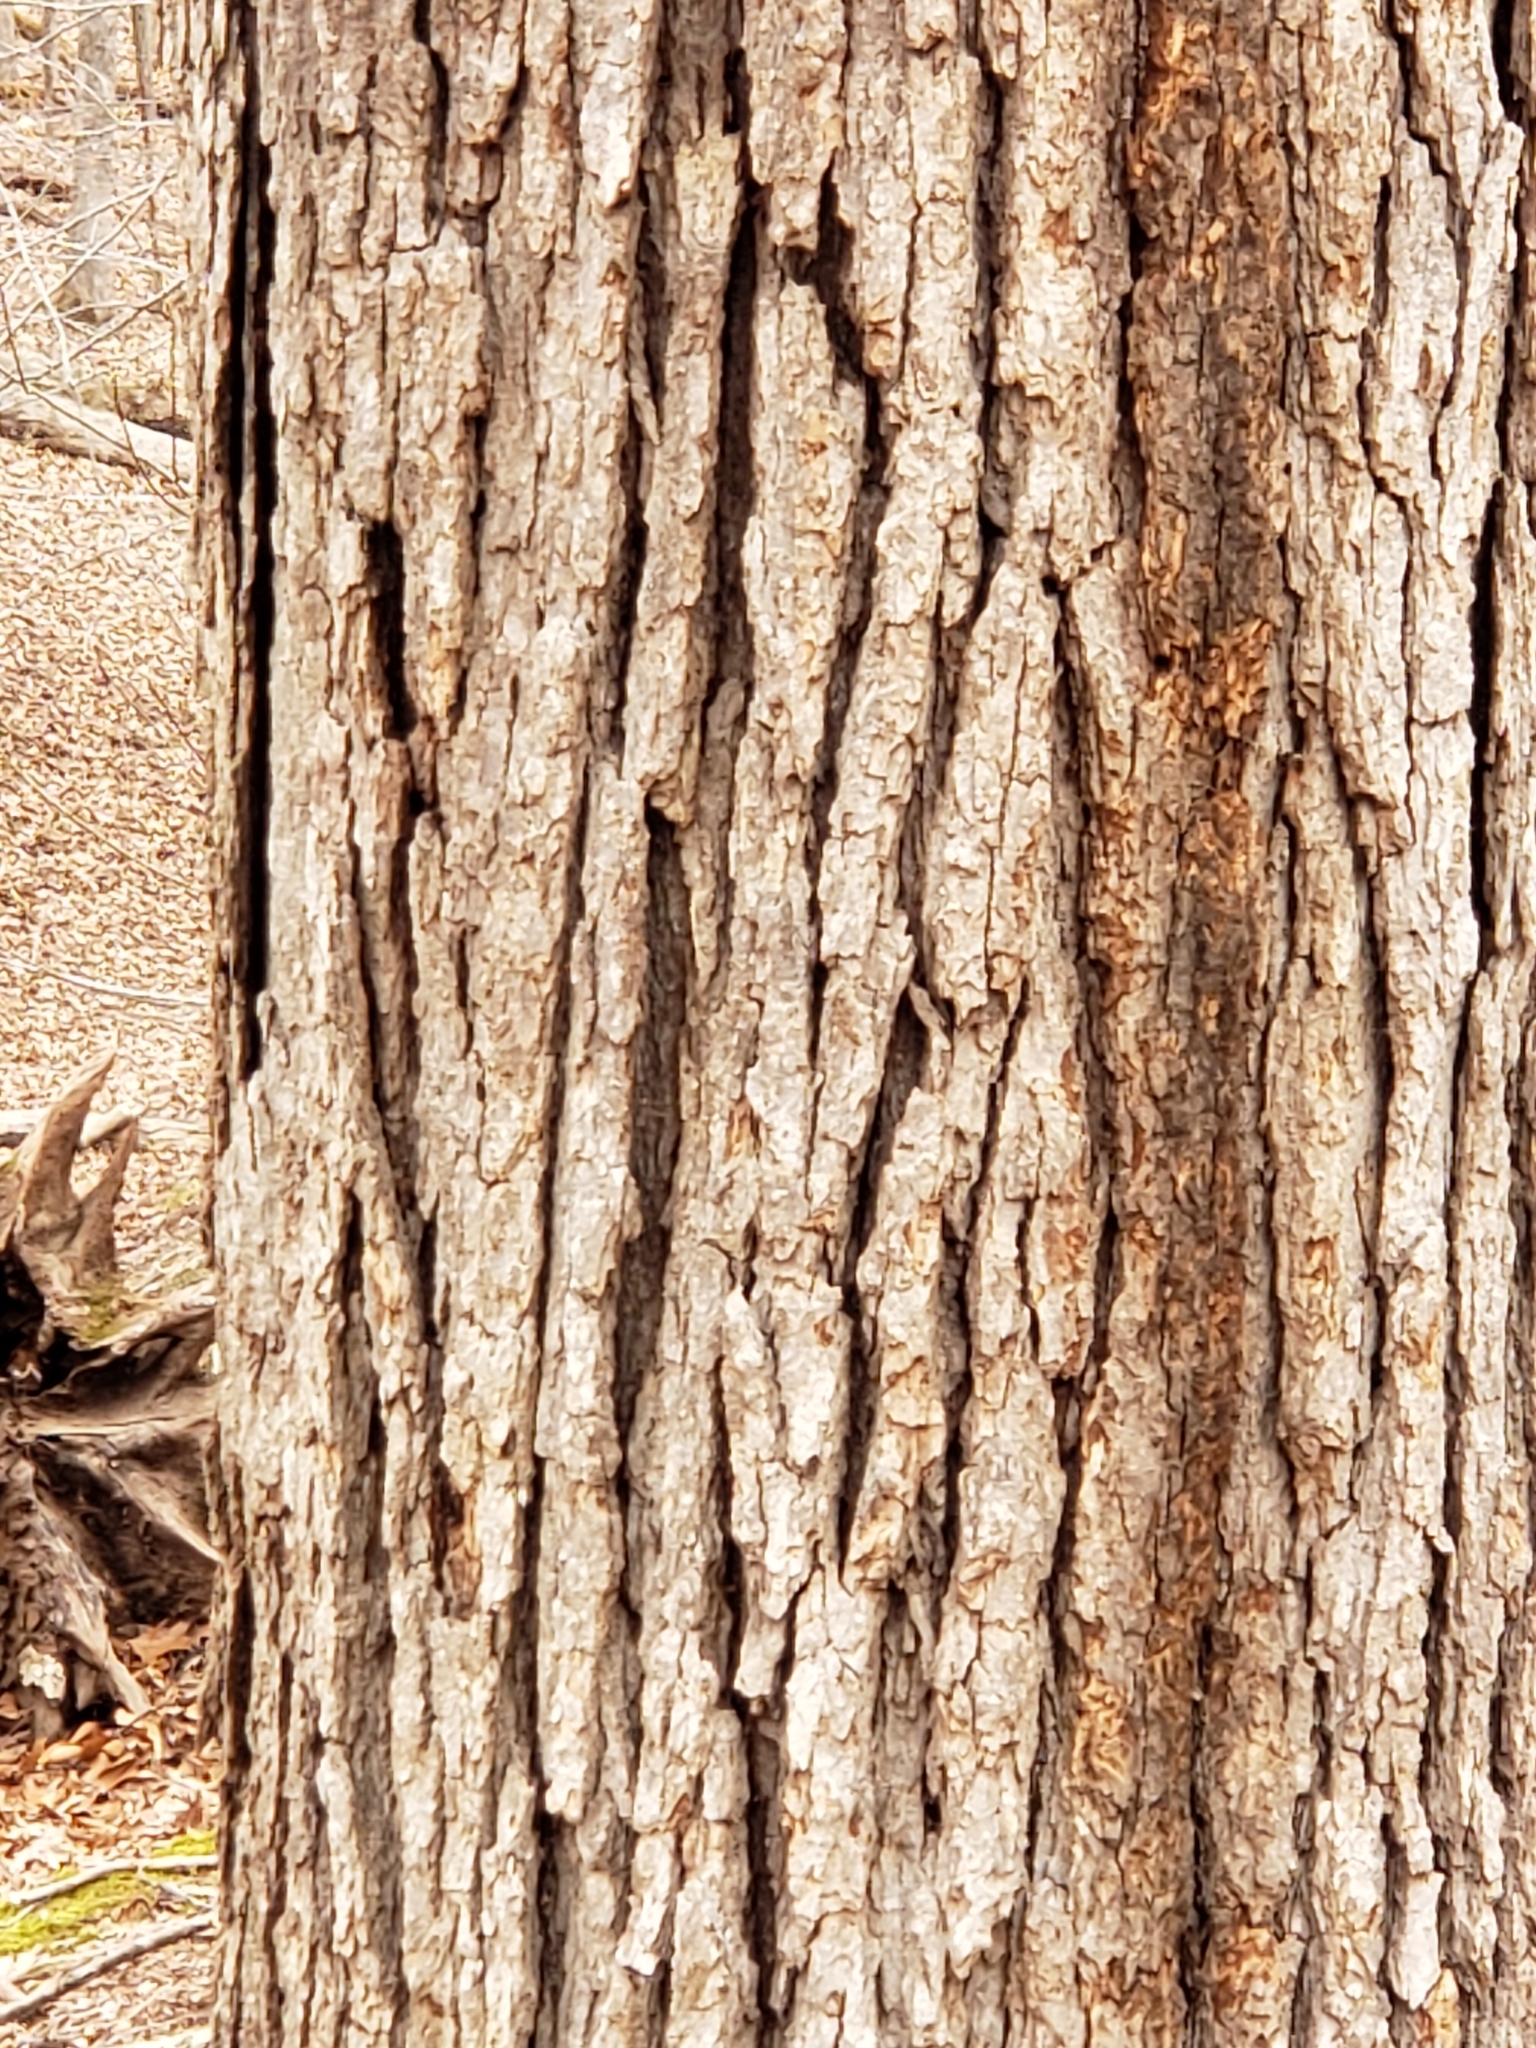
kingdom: Plantae
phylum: Tracheophyta
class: Magnoliopsida
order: Fagales
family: Fagaceae
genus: Quercus
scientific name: Quercus alba
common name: White oak
